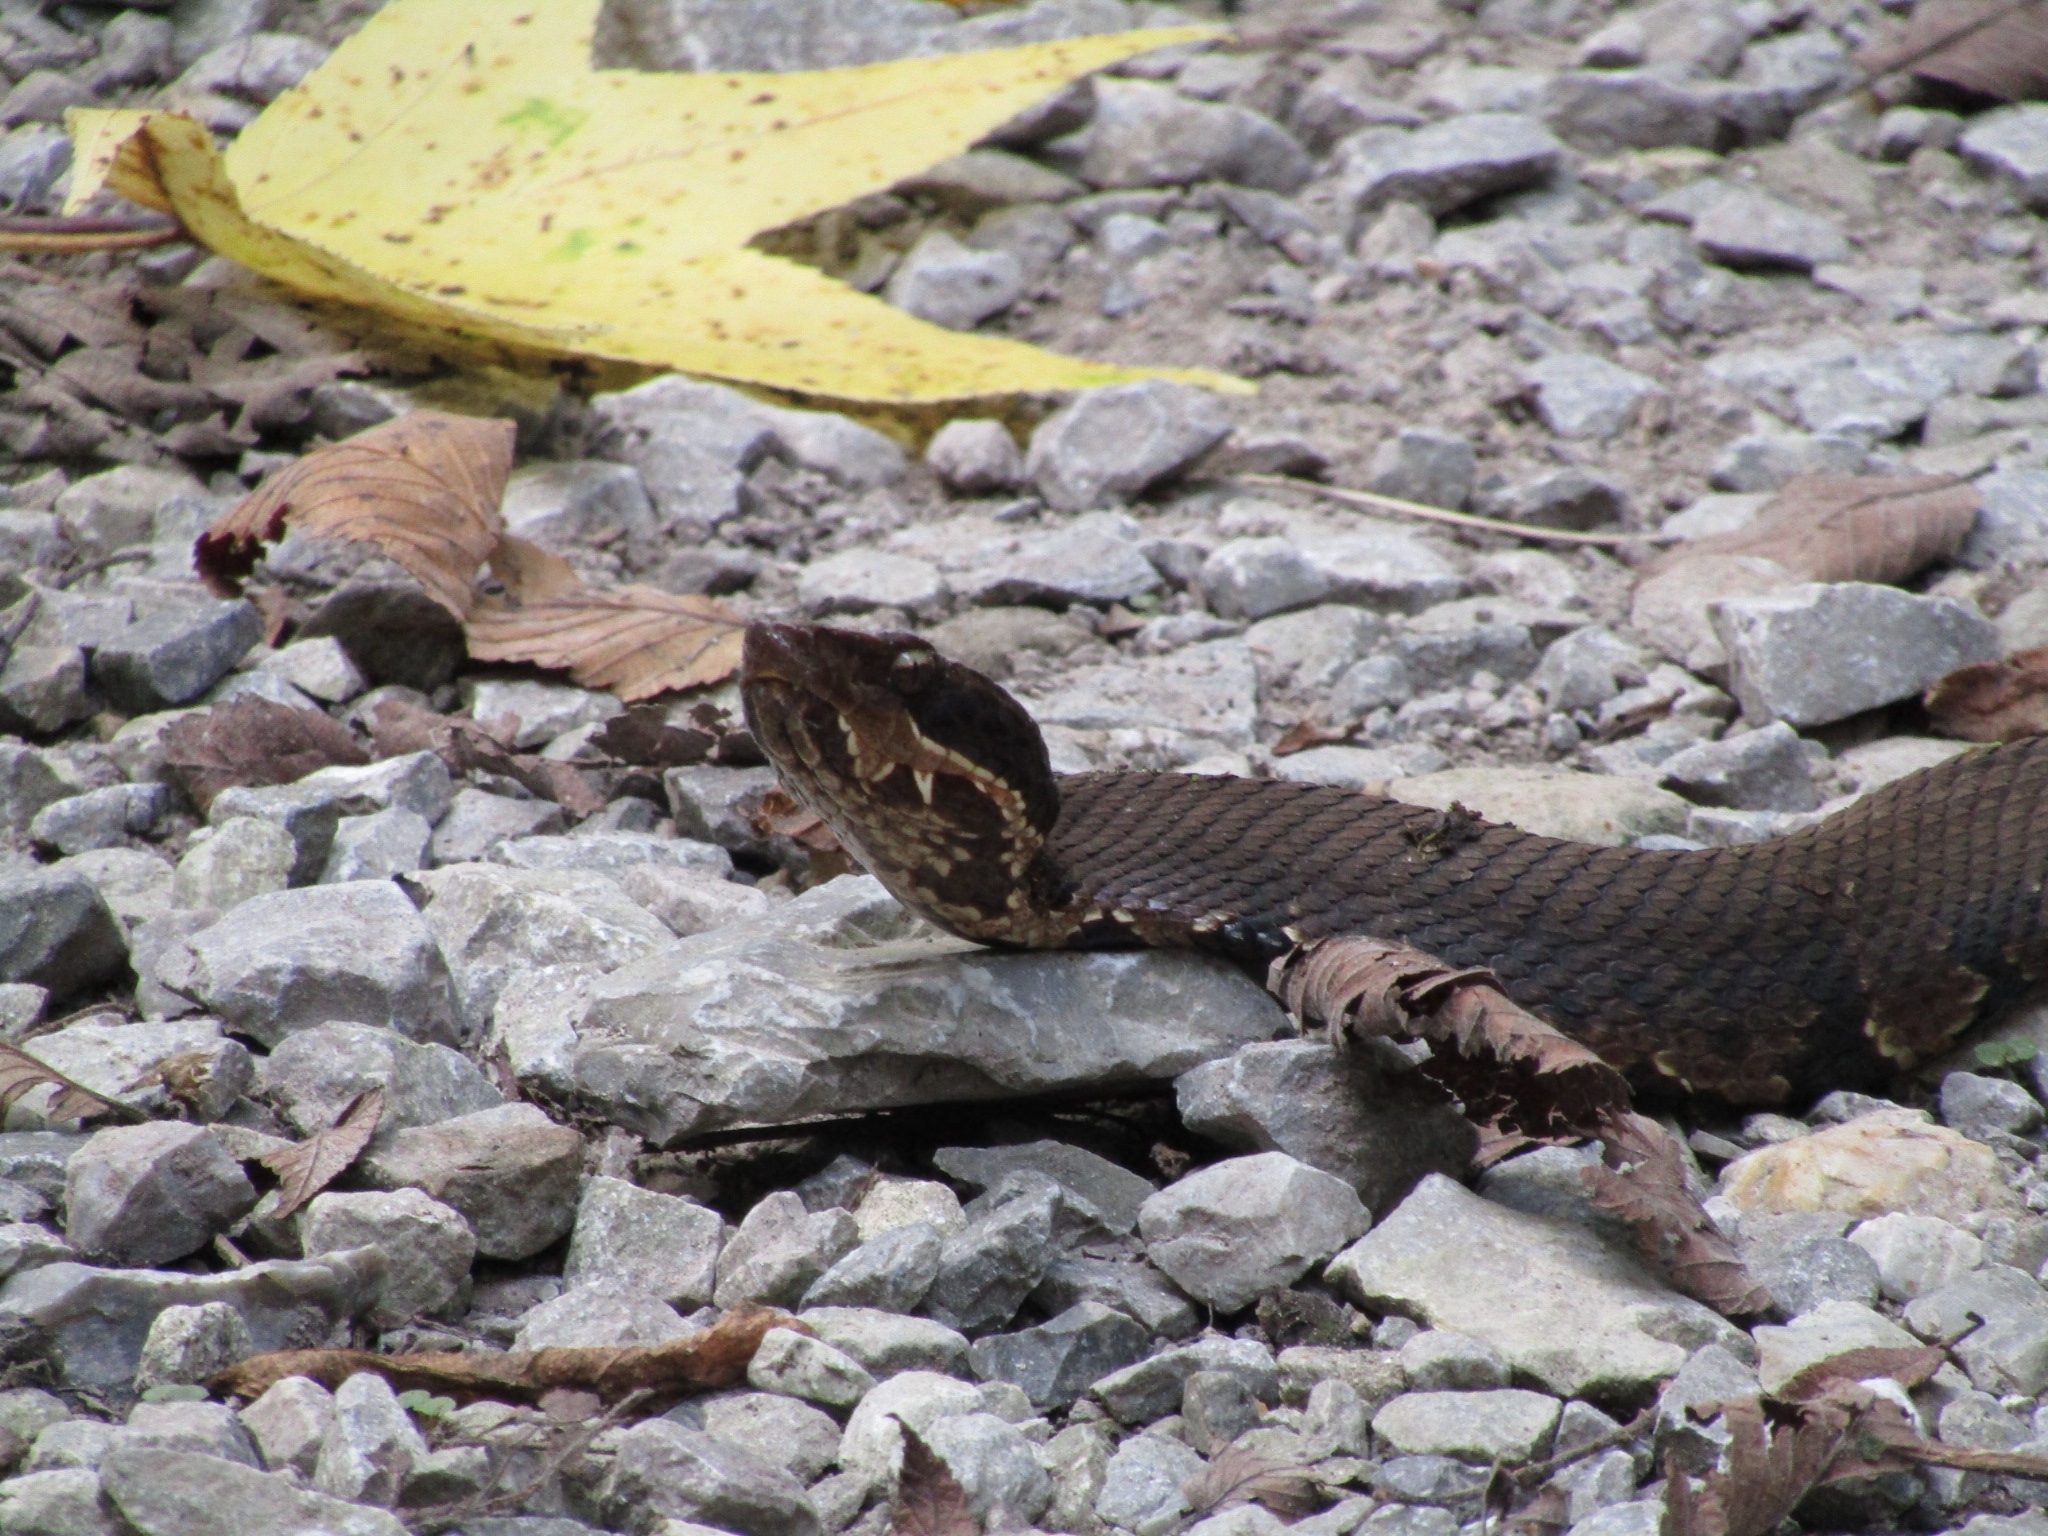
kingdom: Animalia
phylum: Chordata
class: Squamata
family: Viperidae
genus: Agkistrodon
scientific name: Agkistrodon piscivorus
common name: Cottonmouth
